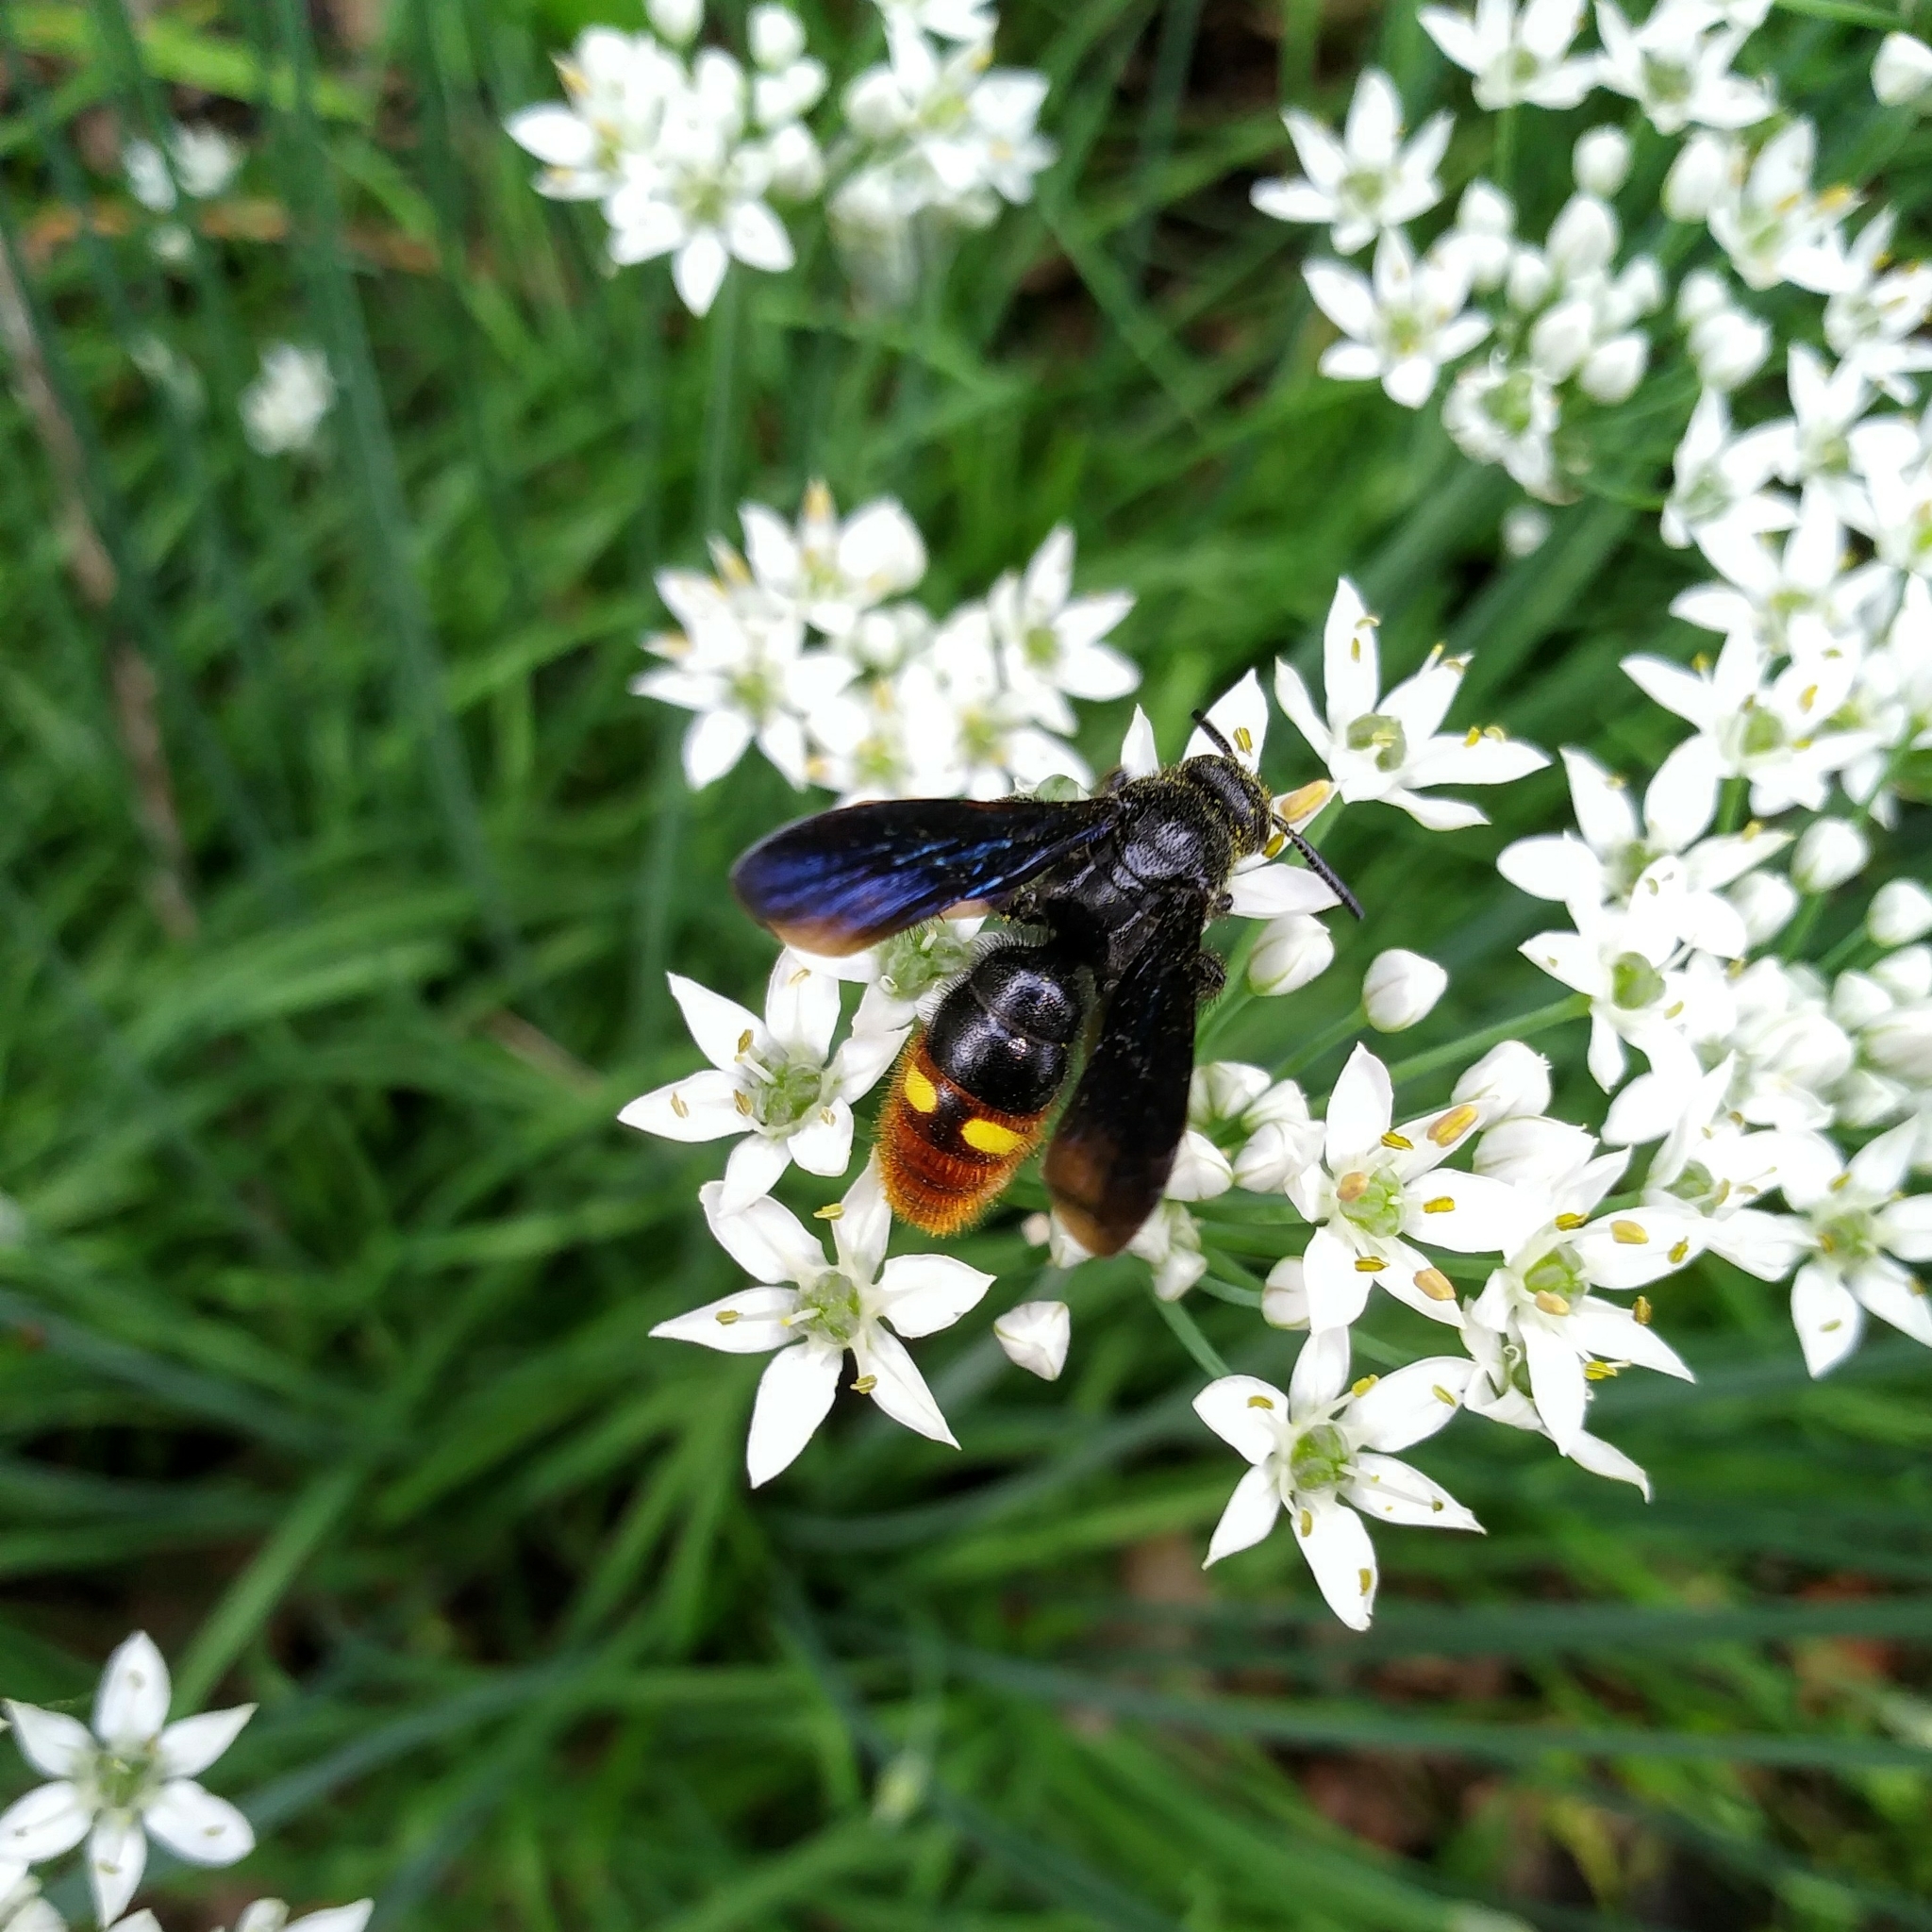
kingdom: Animalia
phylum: Arthropoda
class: Insecta
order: Hymenoptera
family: Scoliidae
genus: Scolia
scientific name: Scolia dubia
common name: Blue-winged scoliid wasp
